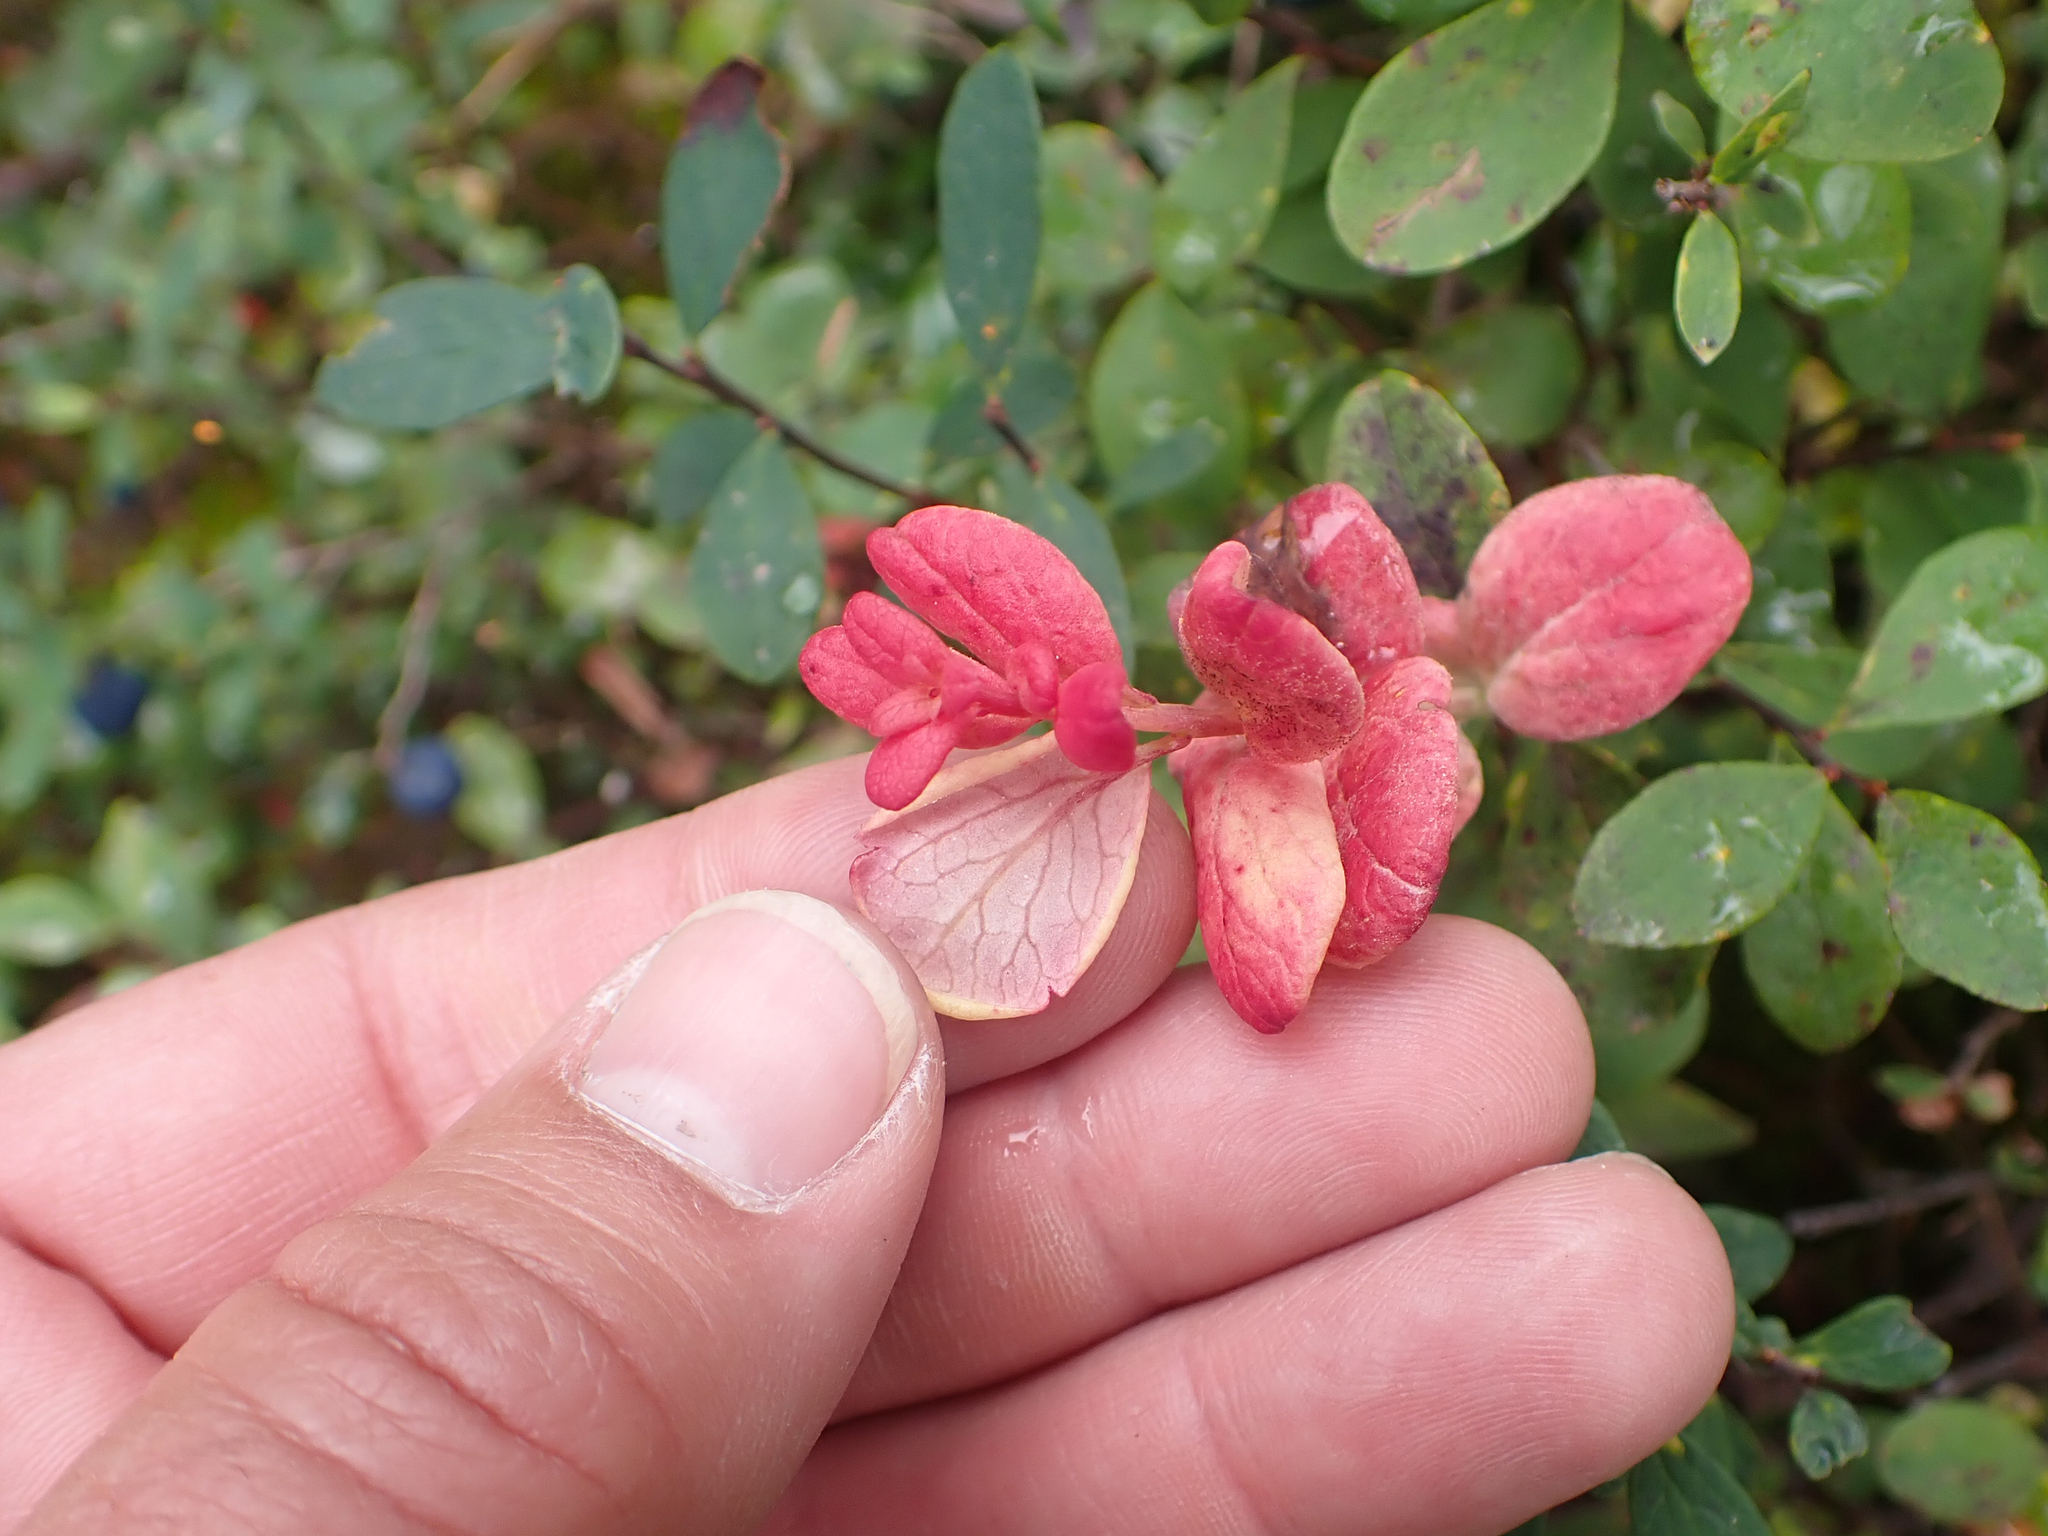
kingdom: Fungi
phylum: Basidiomycota
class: Exobasidiomycetes
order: Exobasidiales
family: Exobasidiaceae
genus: Exobasidium
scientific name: Exobasidium vaccinii-uliginosi
